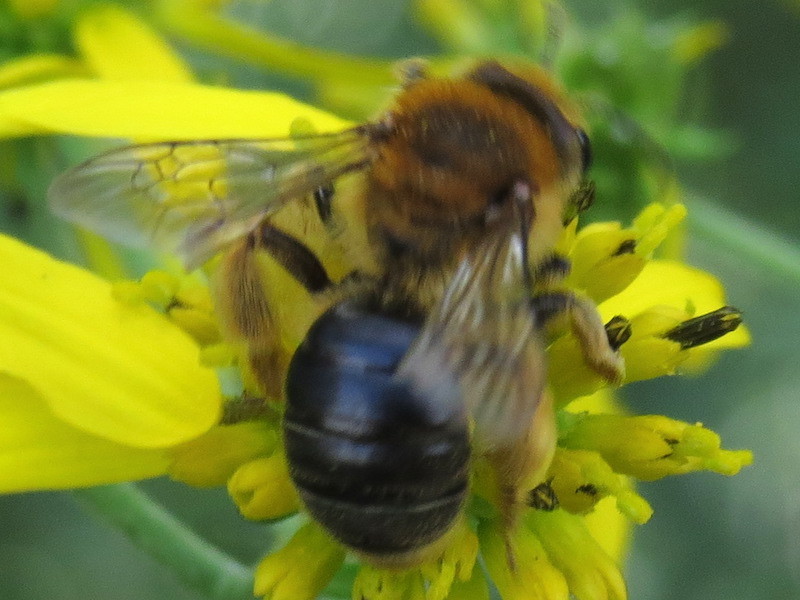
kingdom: Animalia
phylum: Arthropoda
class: Insecta
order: Hymenoptera
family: Andrenidae
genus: Andrena
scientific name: Andrena helianthi
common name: Sunflower mining bee
